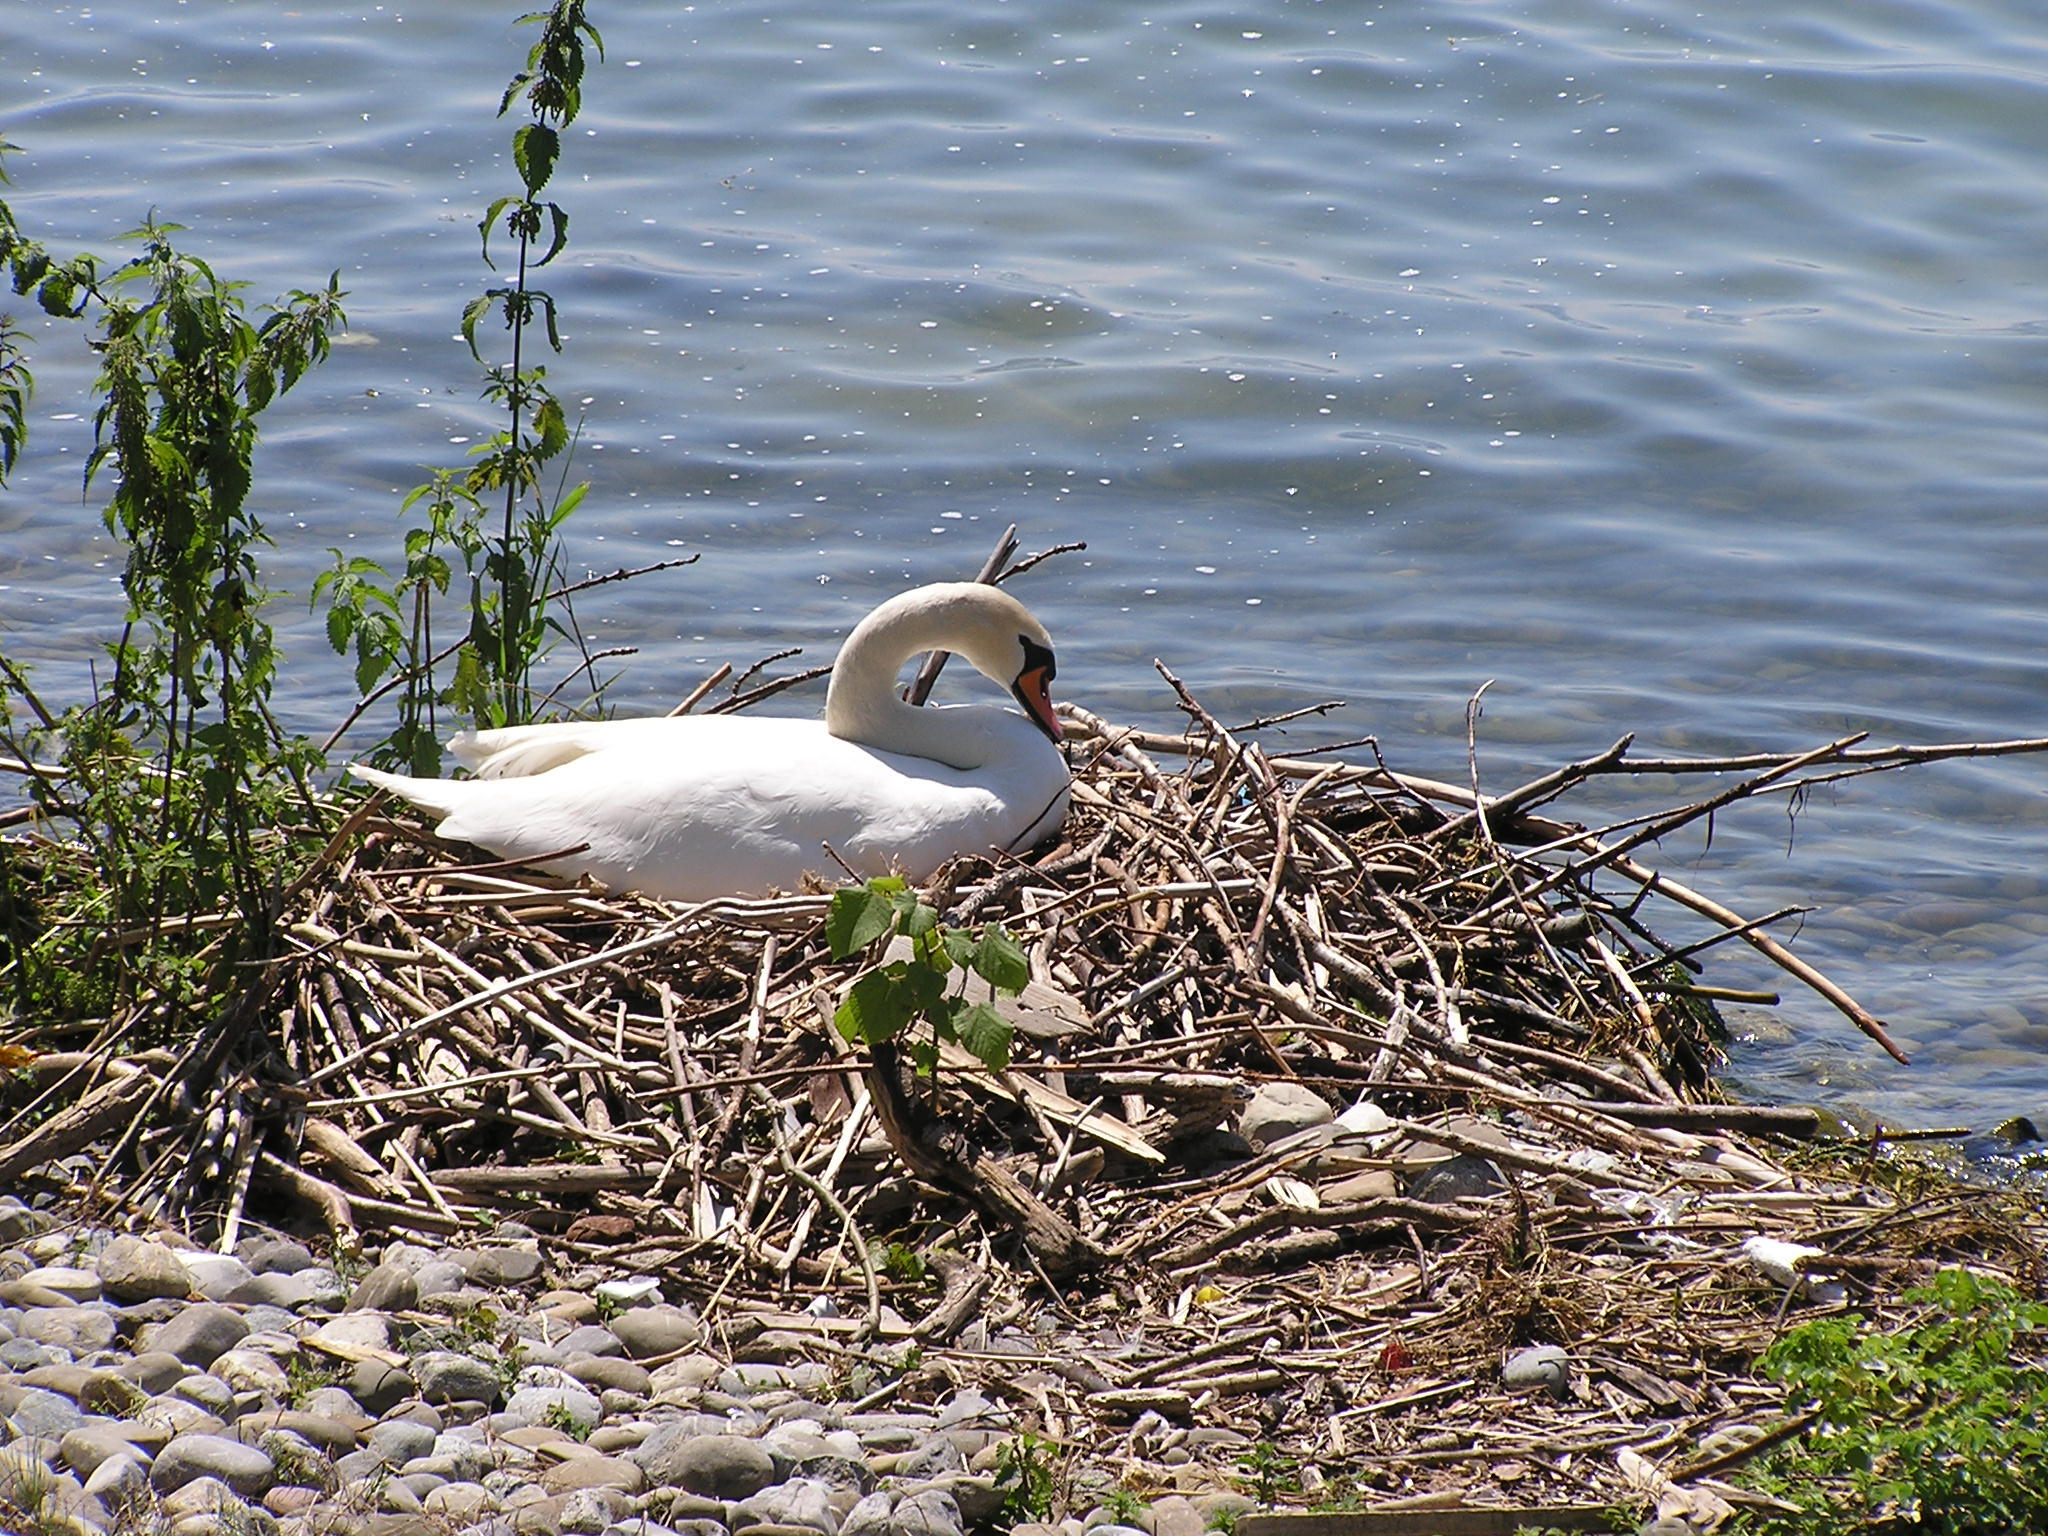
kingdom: Animalia
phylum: Chordata
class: Aves
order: Anseriformes
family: Anatidae
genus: Cygnus
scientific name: Cygnus olor
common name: Mute swan
